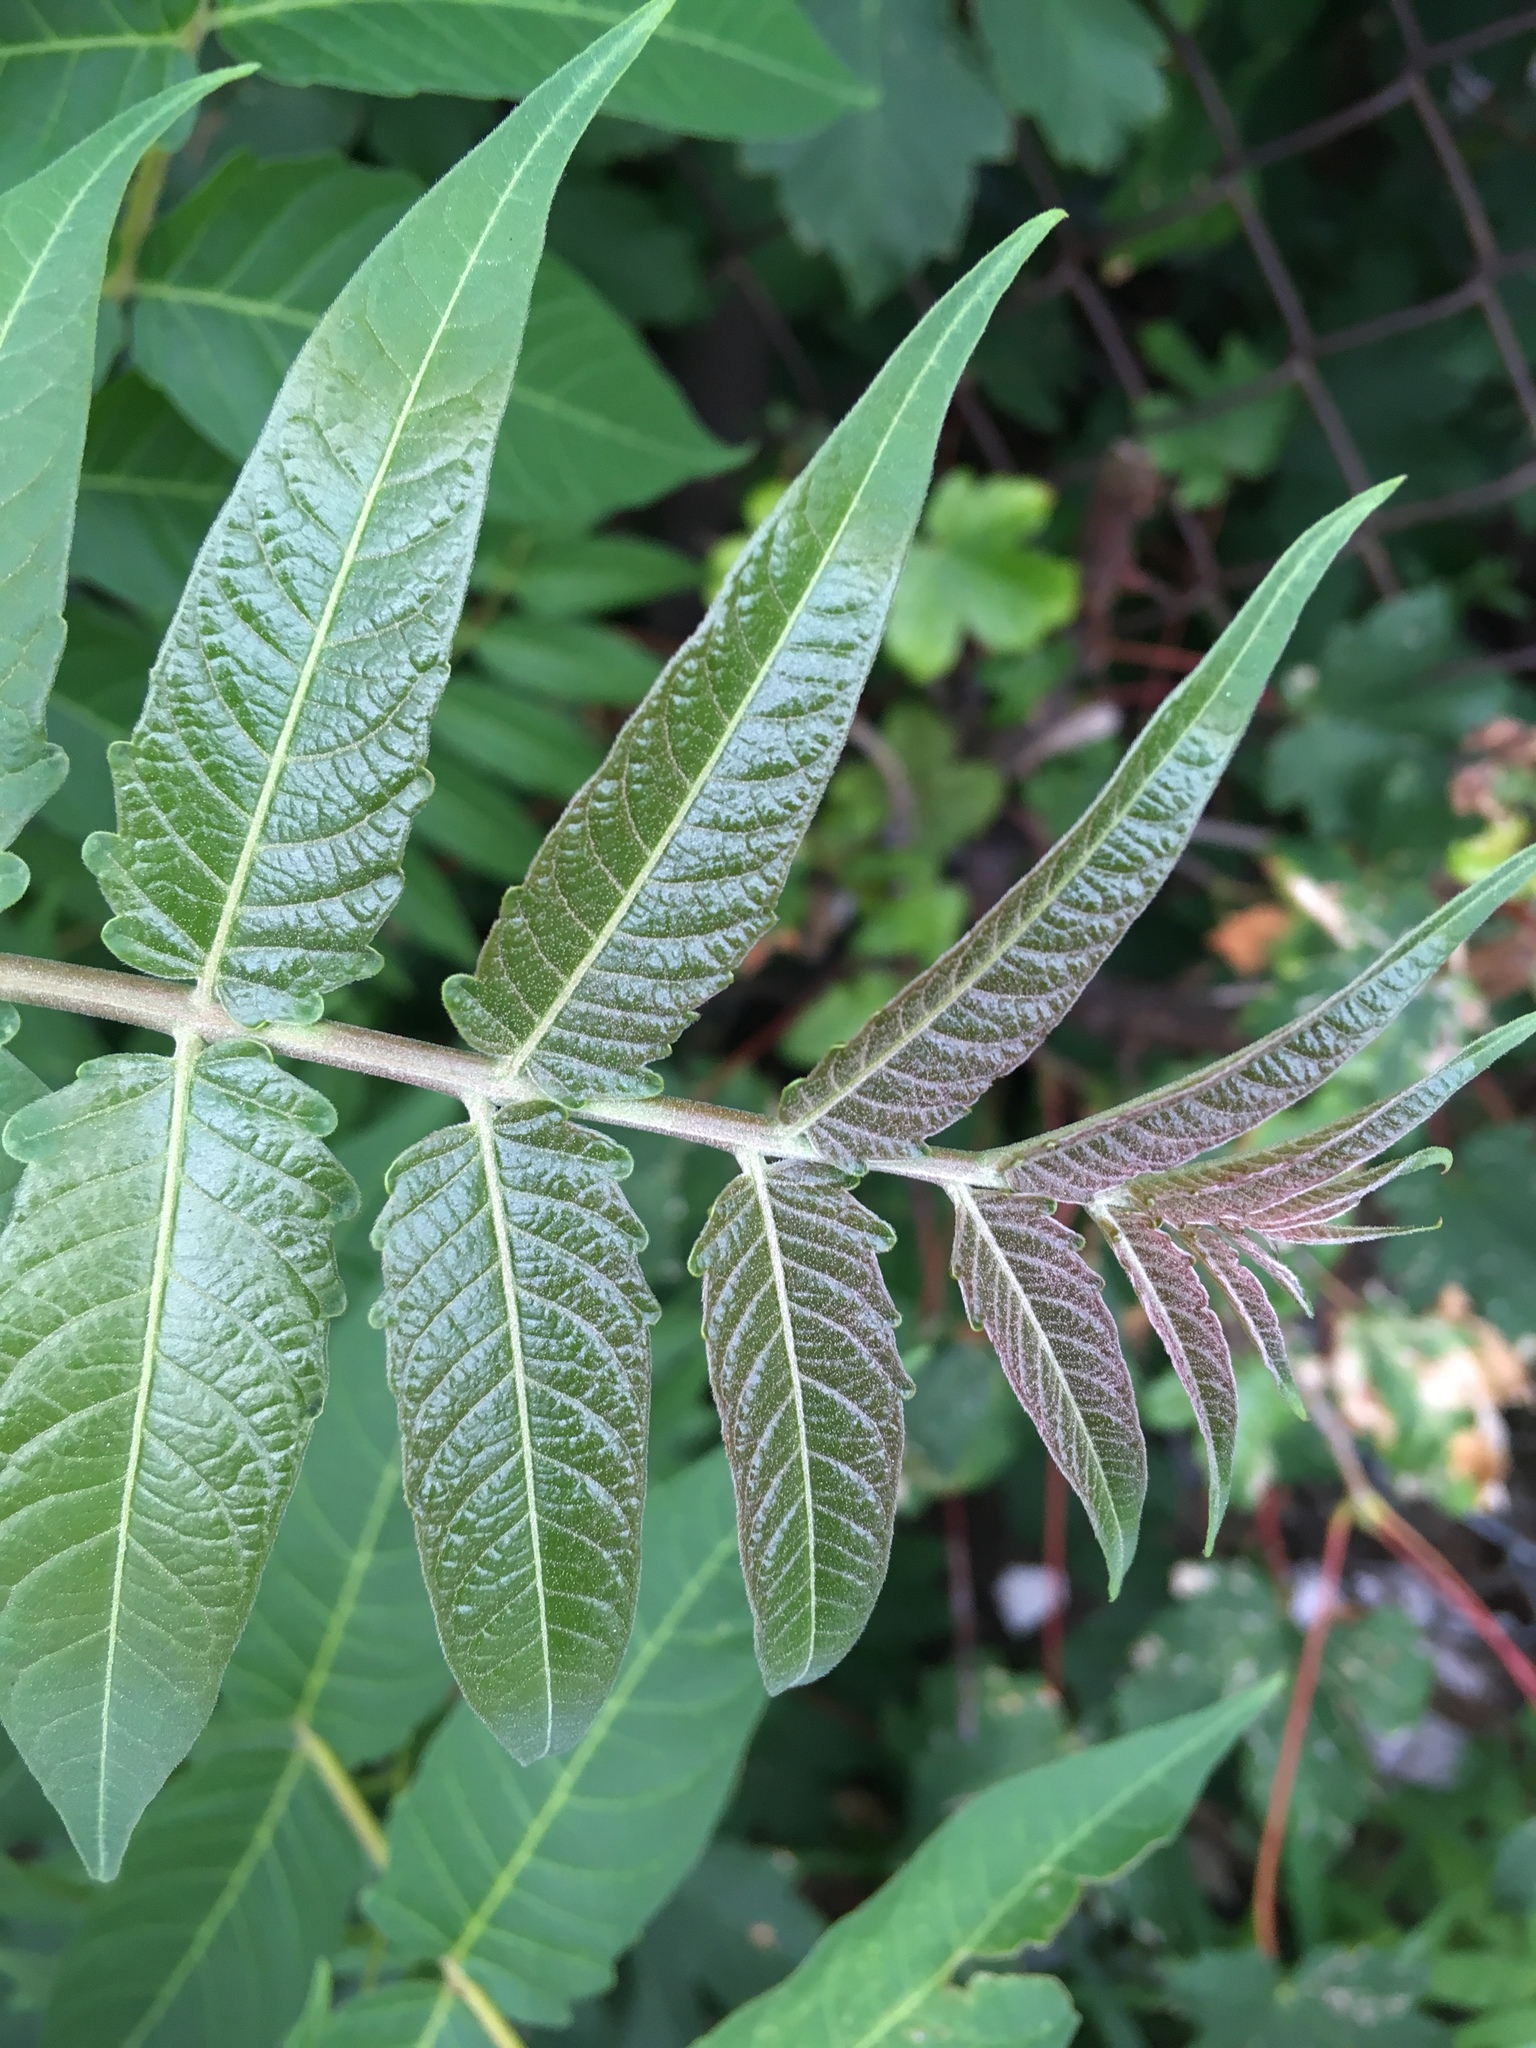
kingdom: Plantae
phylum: Tracheophyta
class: Magnoliopsida
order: Sapindales
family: Simaroubaceae
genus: Ailanthus
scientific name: Ailanthus altissima
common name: Tree-of-heaven
